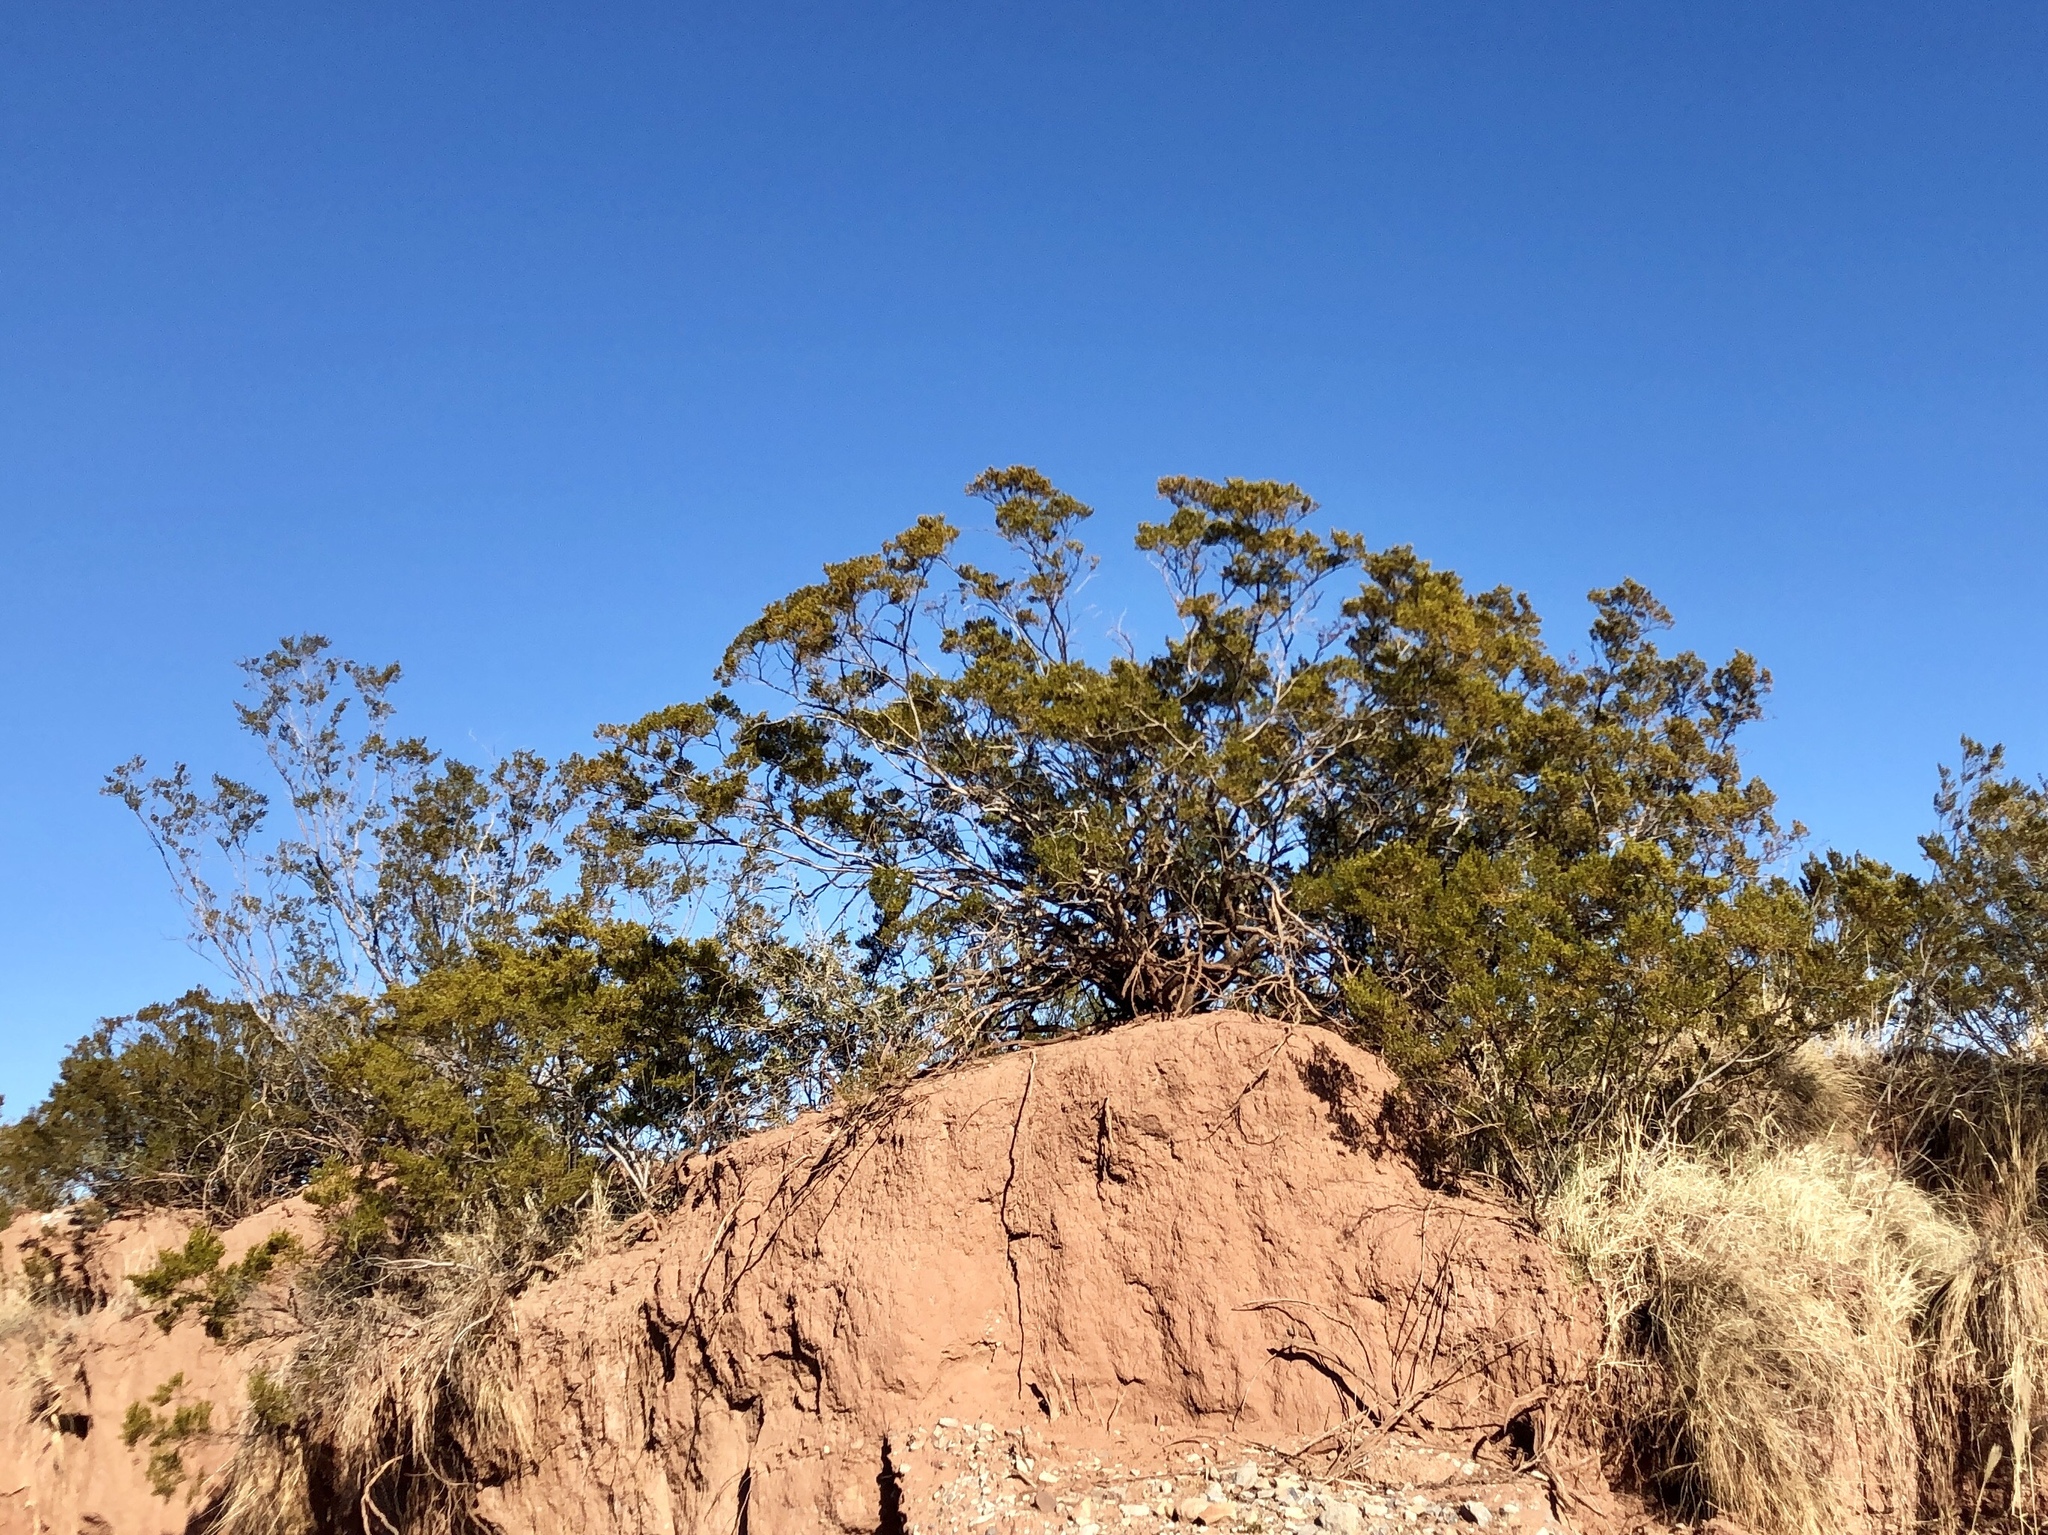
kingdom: Plantae
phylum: Tracheophyta
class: Magnoliopsida
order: Zygophyllales
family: Zygophyllaceae
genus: Larrea
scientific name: Larrea tridentata
